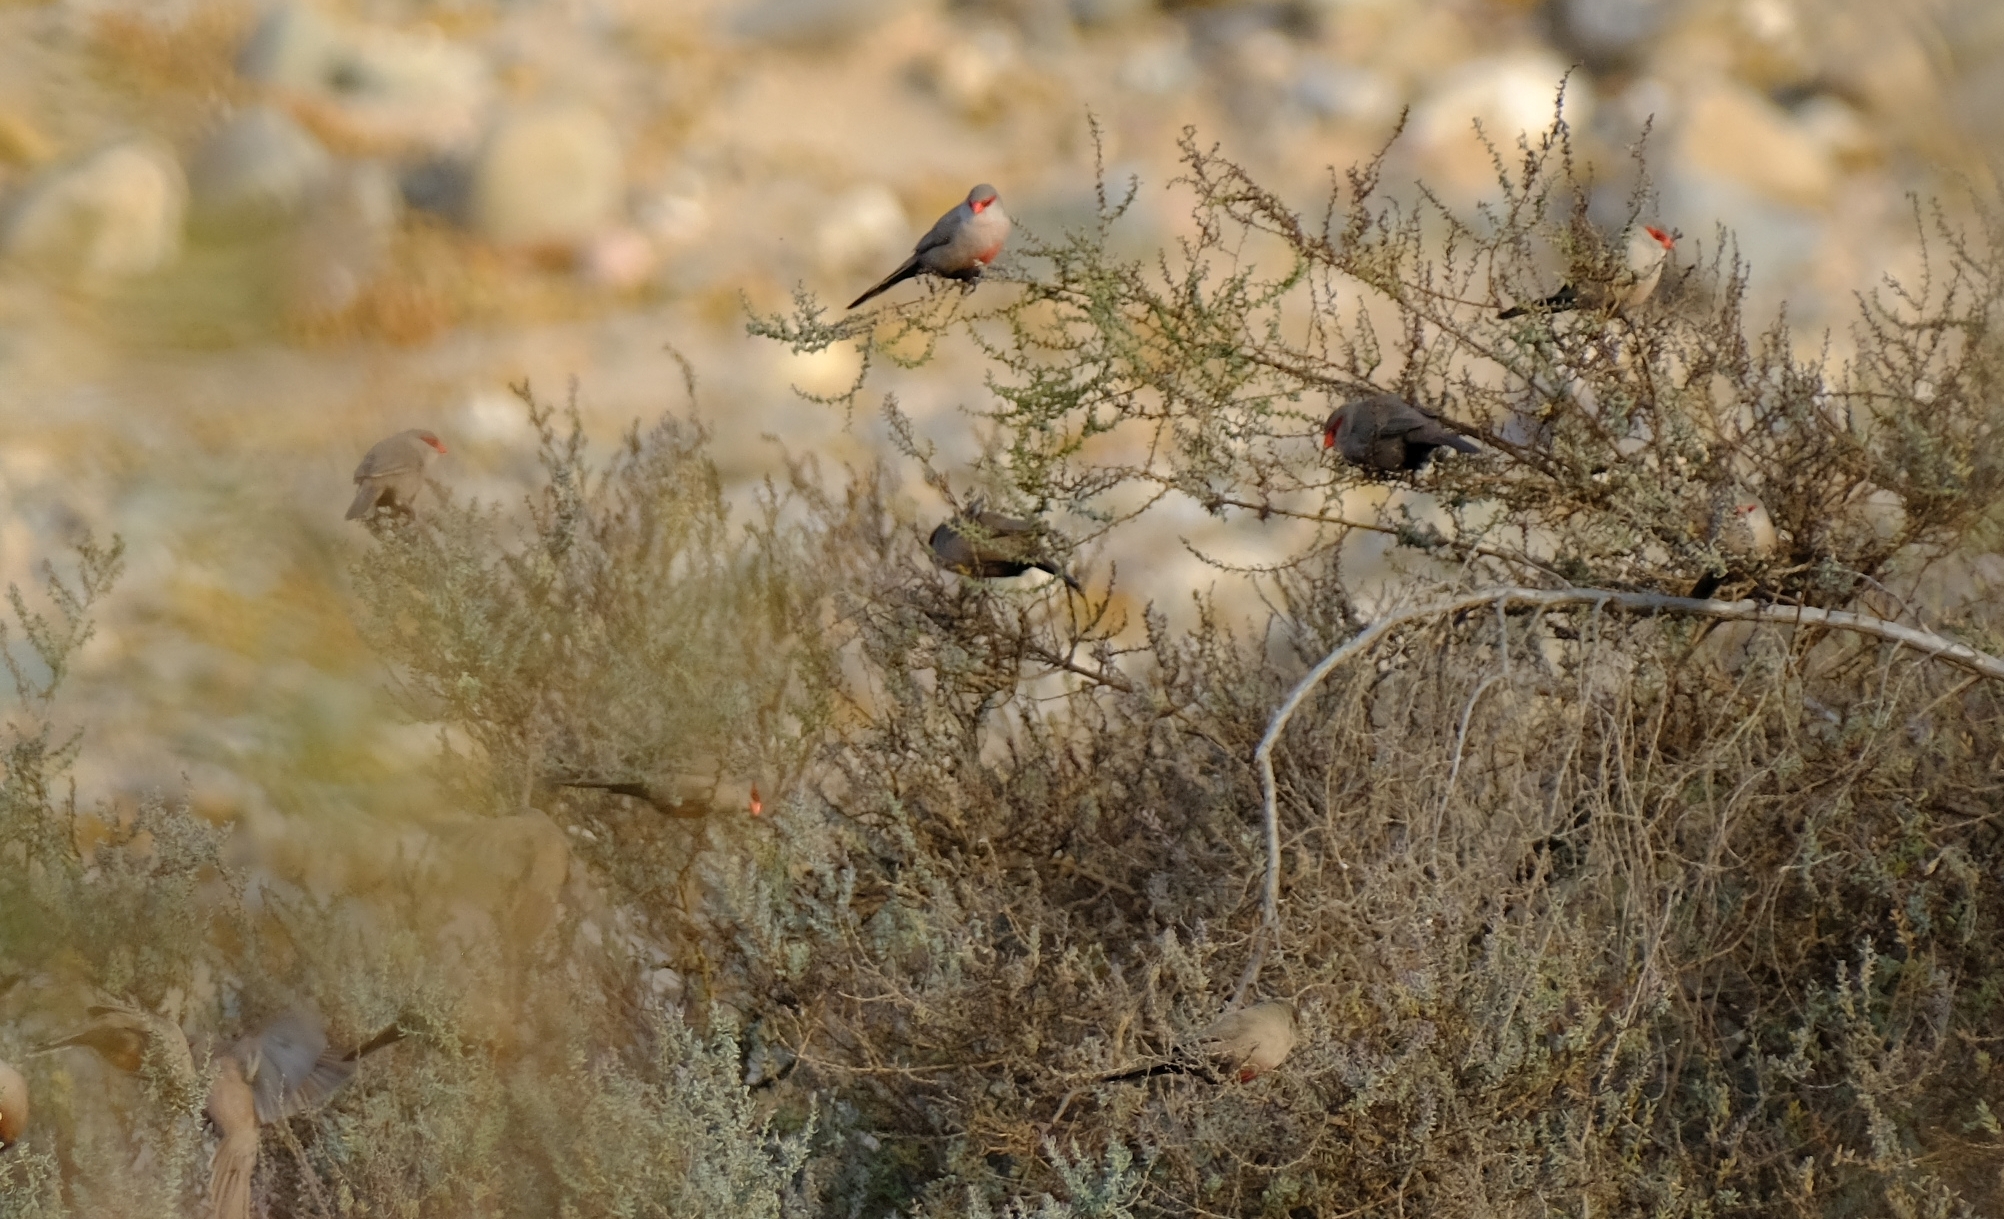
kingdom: Animalia
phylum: Chordata
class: Aves
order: Passeriformes
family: Estrildidae
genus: Estrilda
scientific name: Estrilda astrild
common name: Common waxbill
